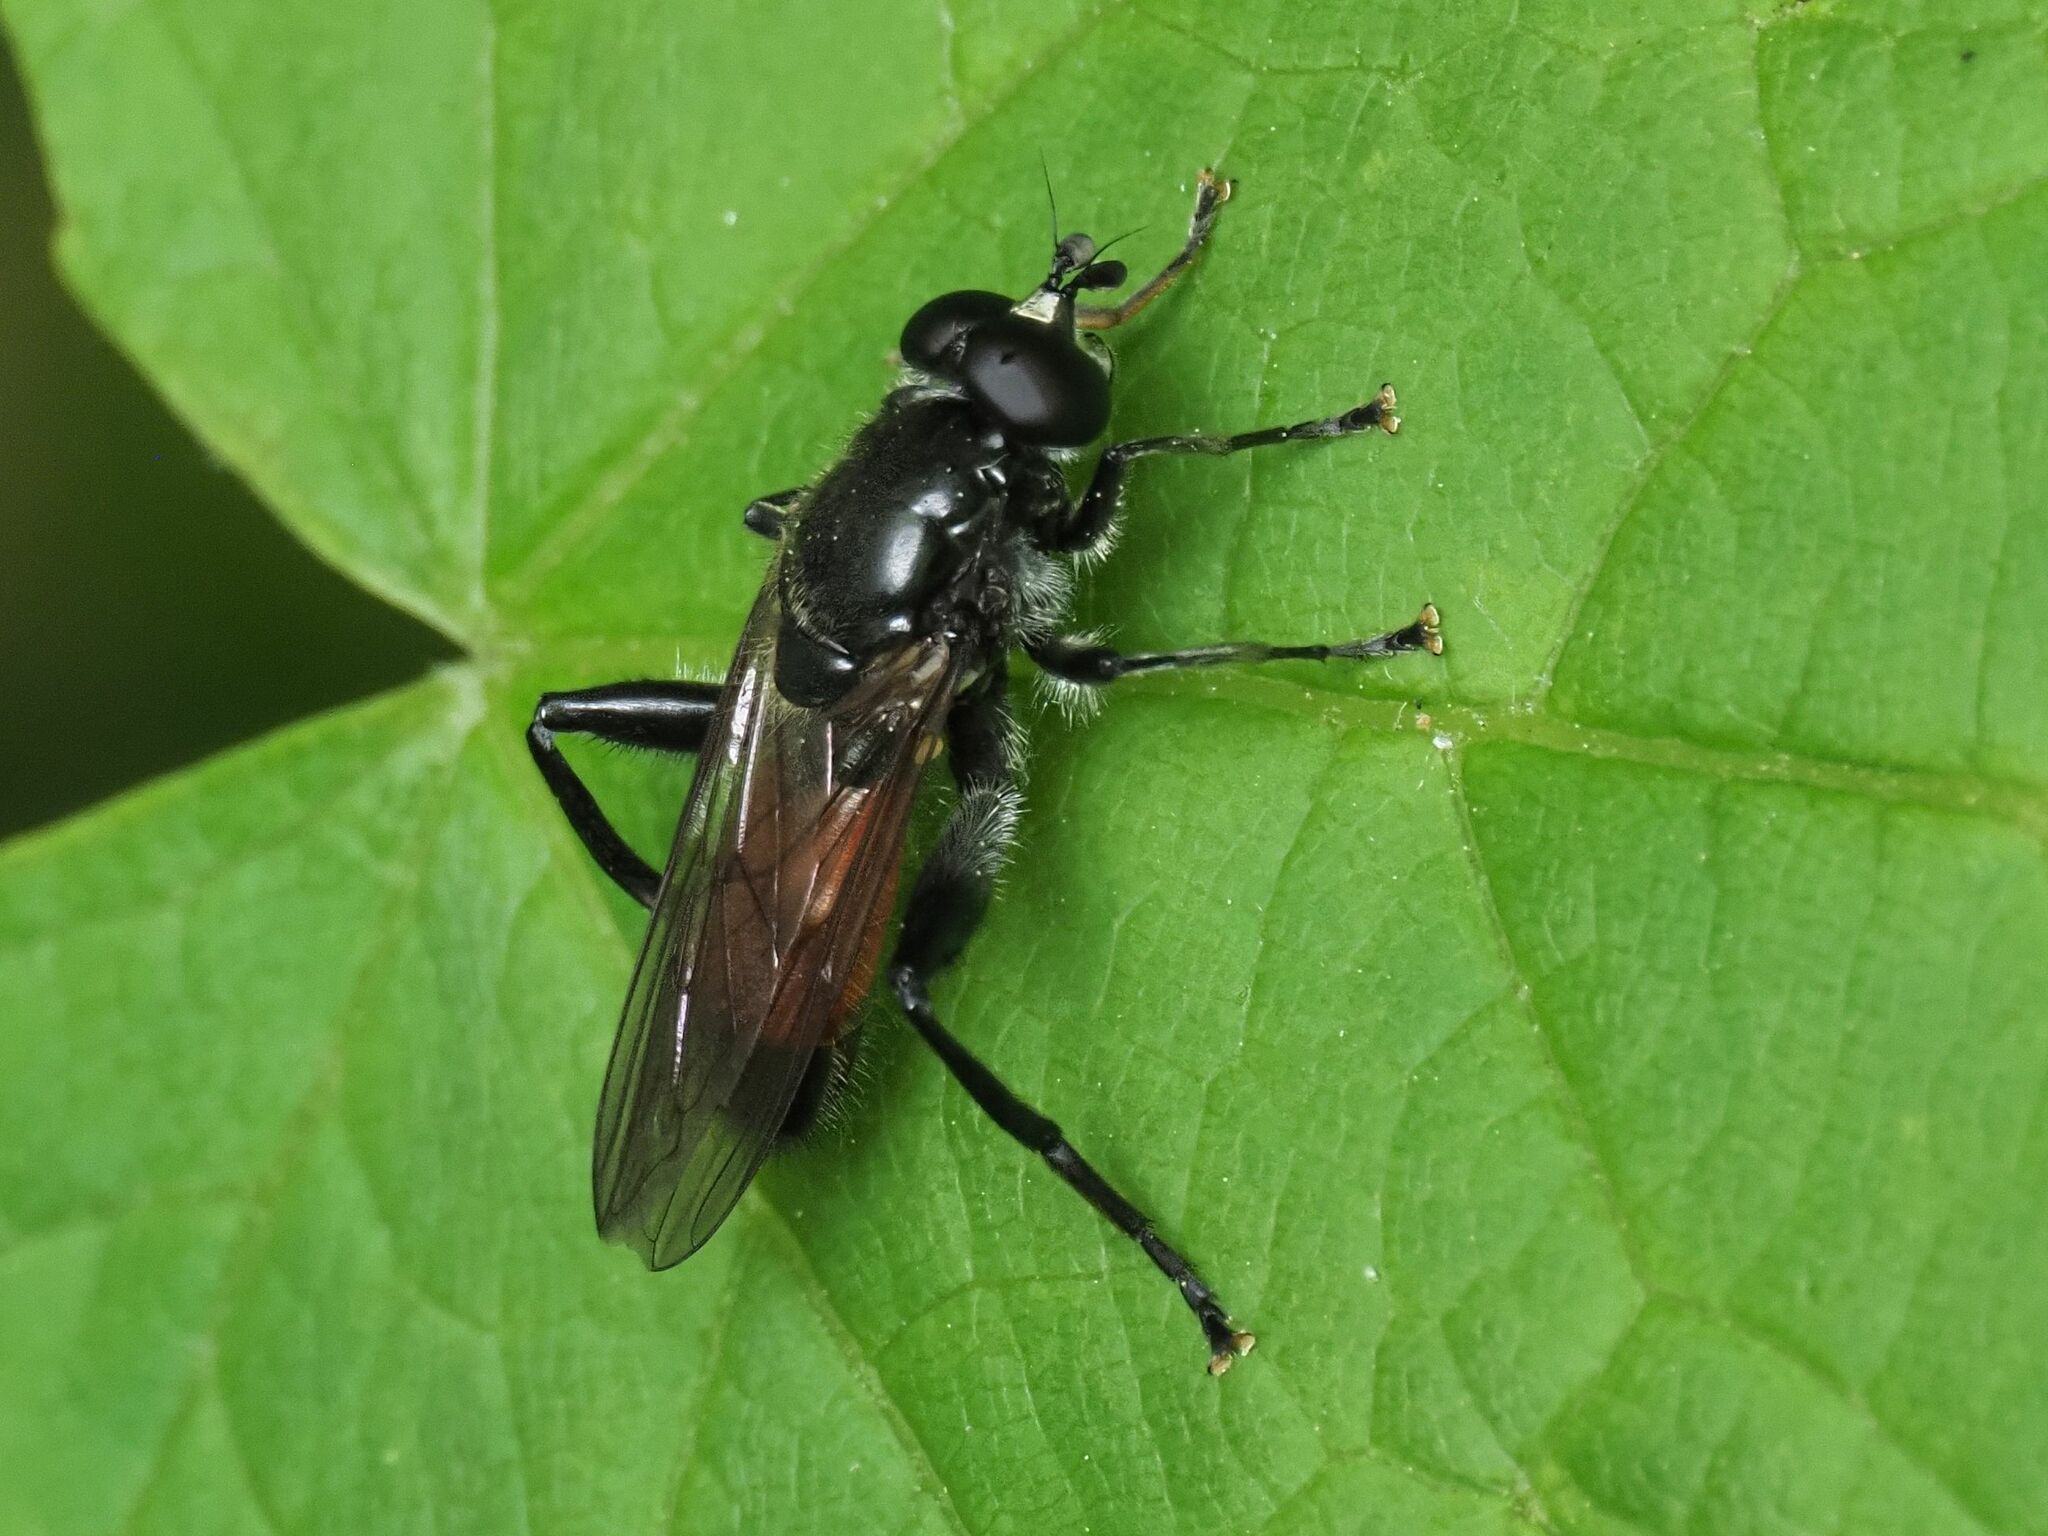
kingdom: Animalia
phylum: Arthropoda
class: Insecta
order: Diptera
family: Syrphidae
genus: Brachypalpoides
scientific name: Brachypalpoides lenta
